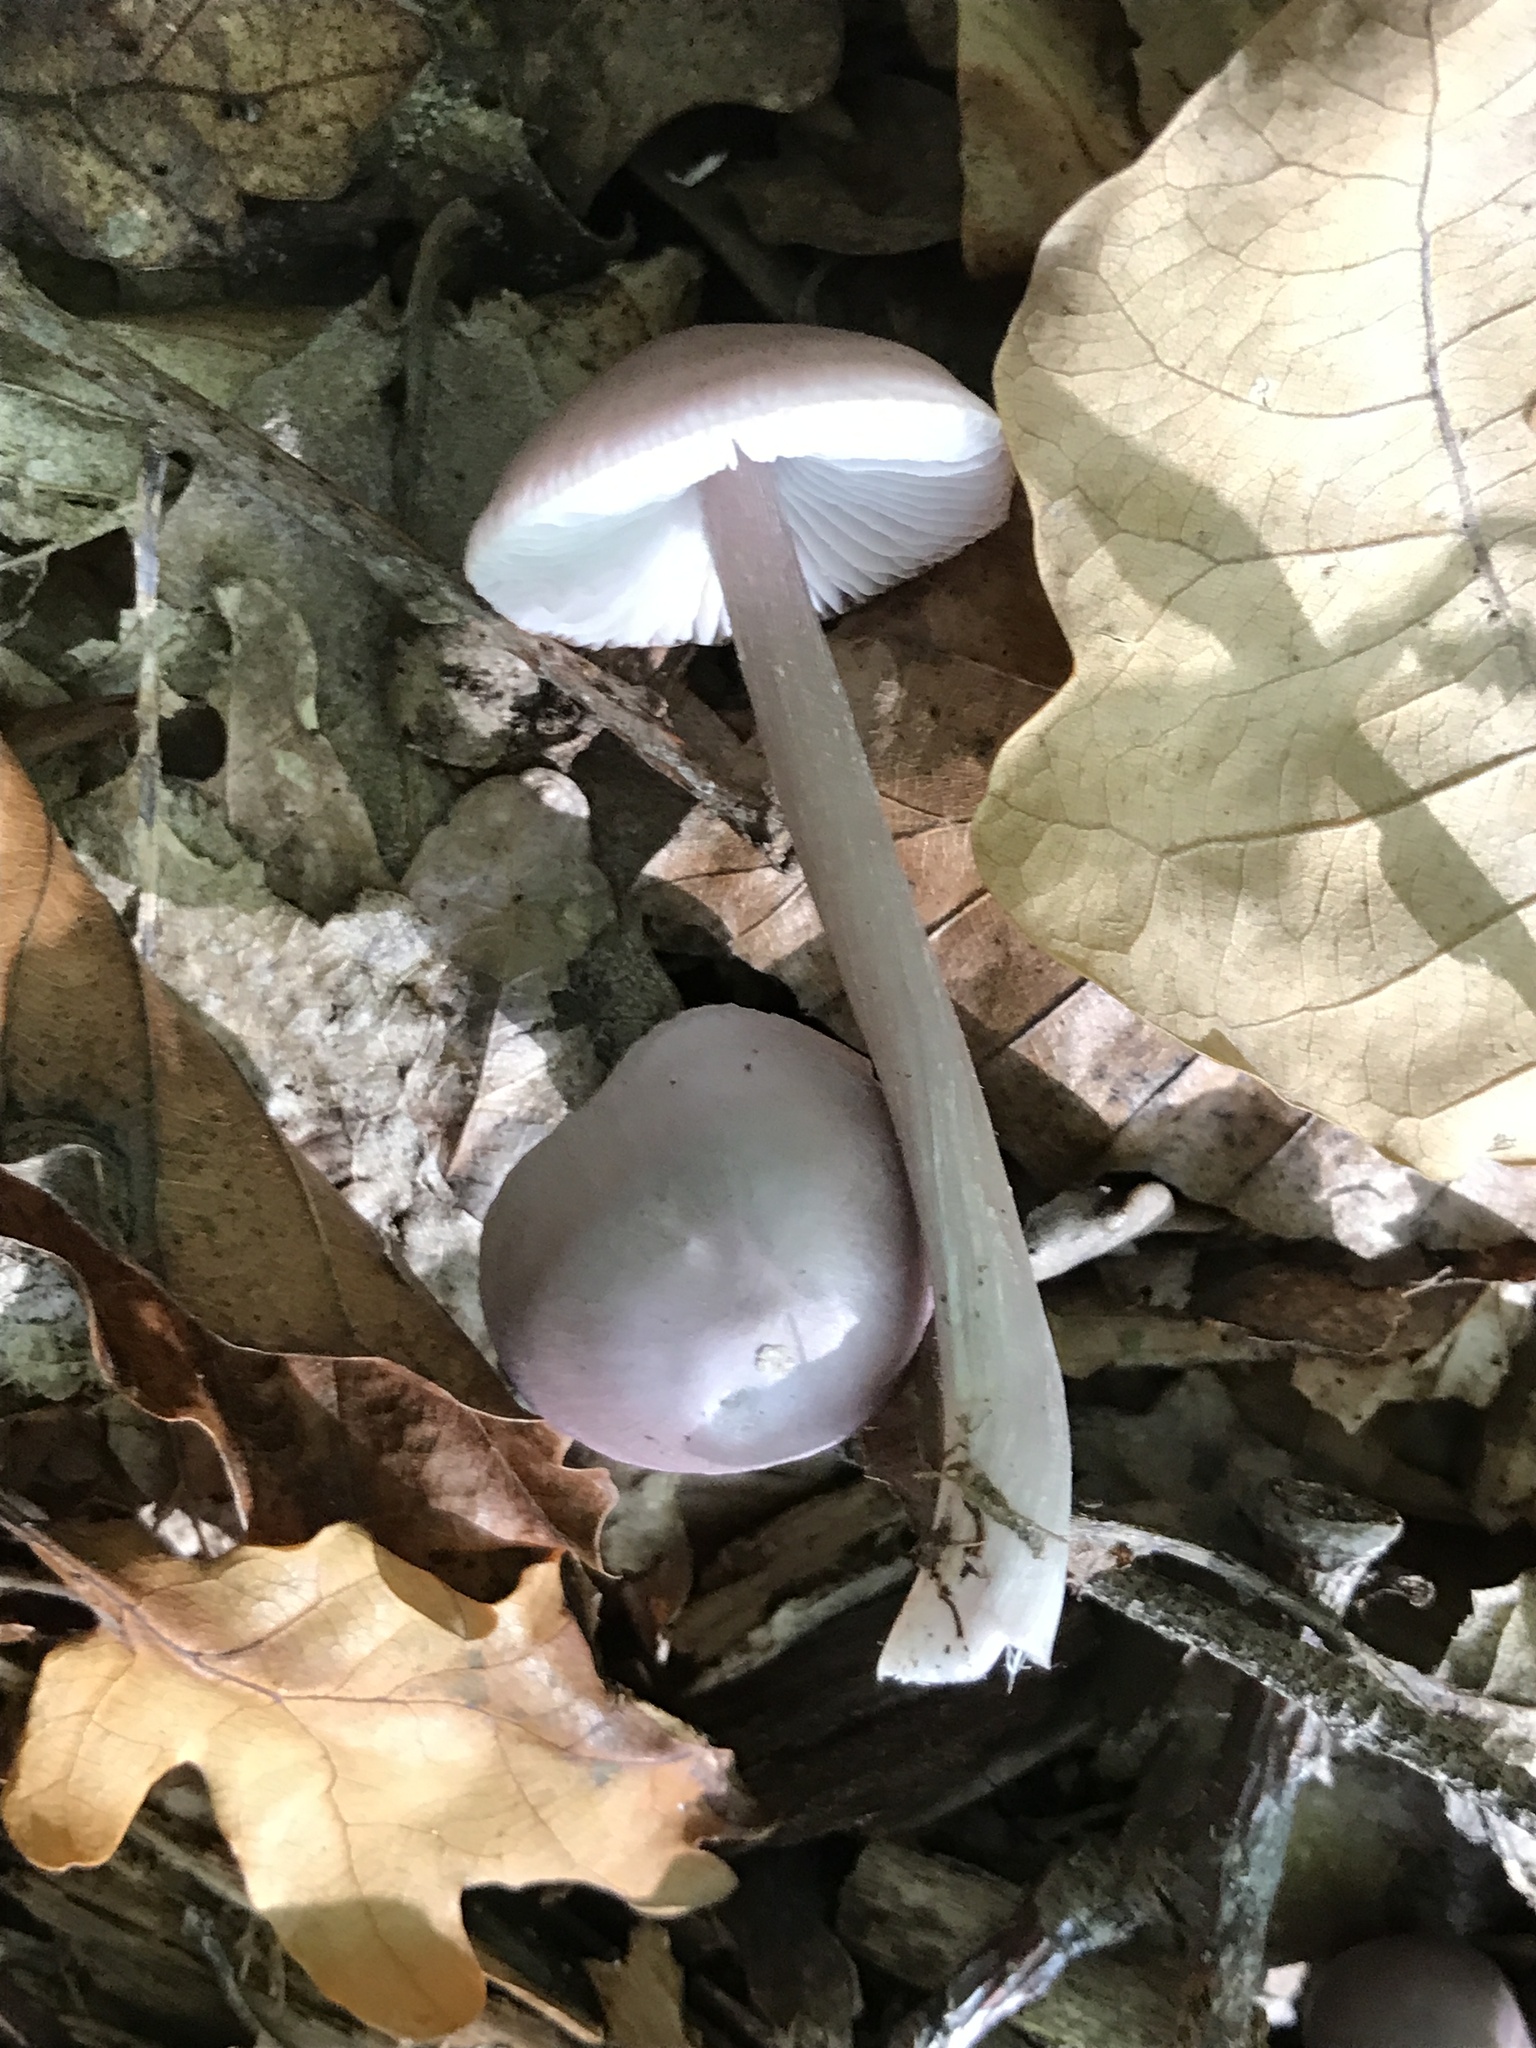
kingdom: Fungi
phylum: Basidiomycota
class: Agaricomycetes
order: Agaricales
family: Mycenaceae
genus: Mycena
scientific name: Mycena rosea
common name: Rosy bonnet
